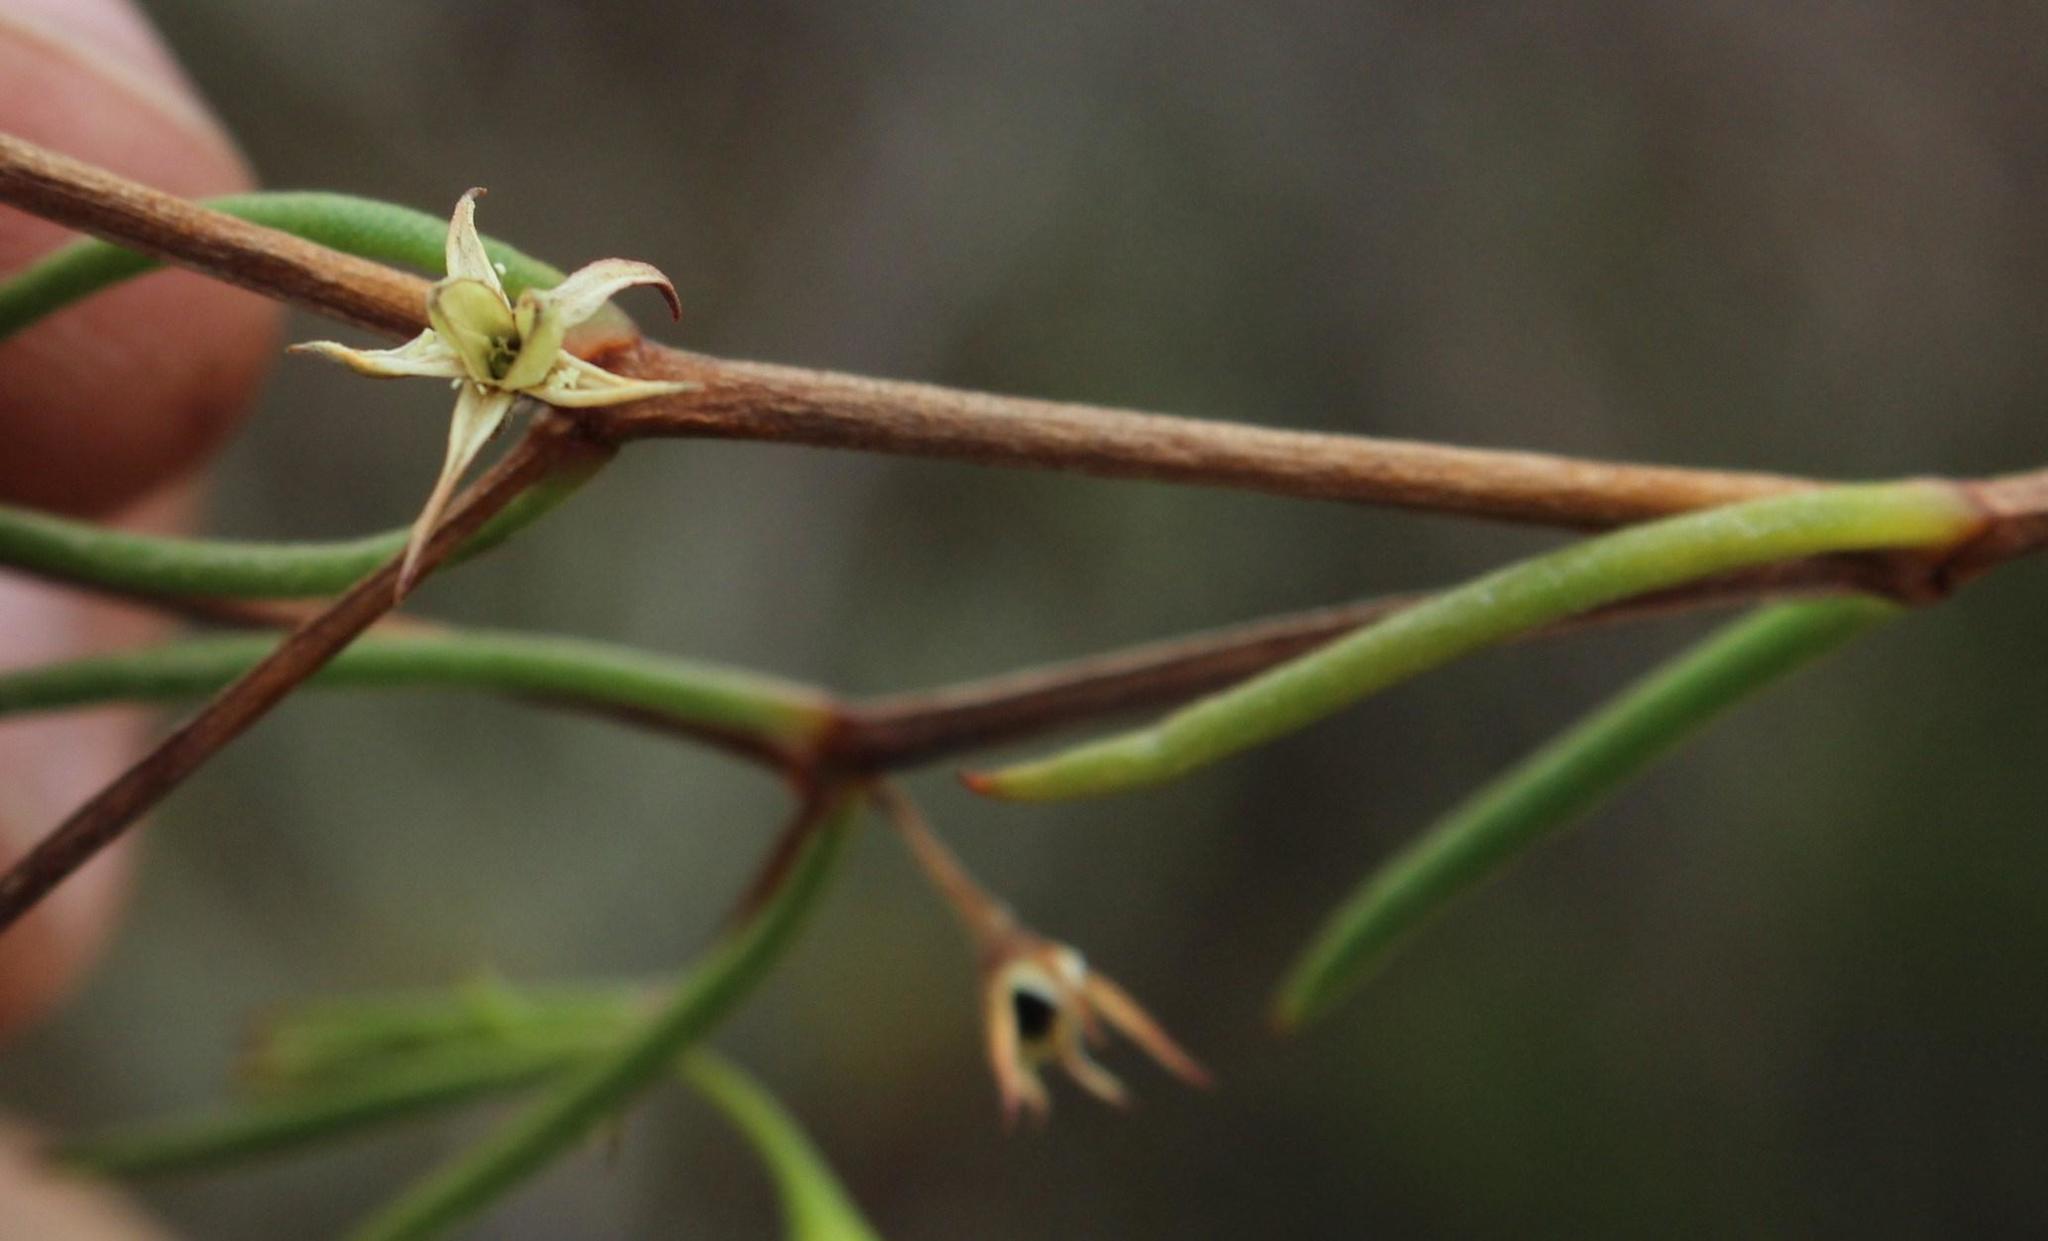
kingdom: Plantae
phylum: Tracheophyta
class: Magnoliopsida
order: Caryophyllales
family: Aizoaceae
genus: Acrosanthes
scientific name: Acrosanthes teretifolia
